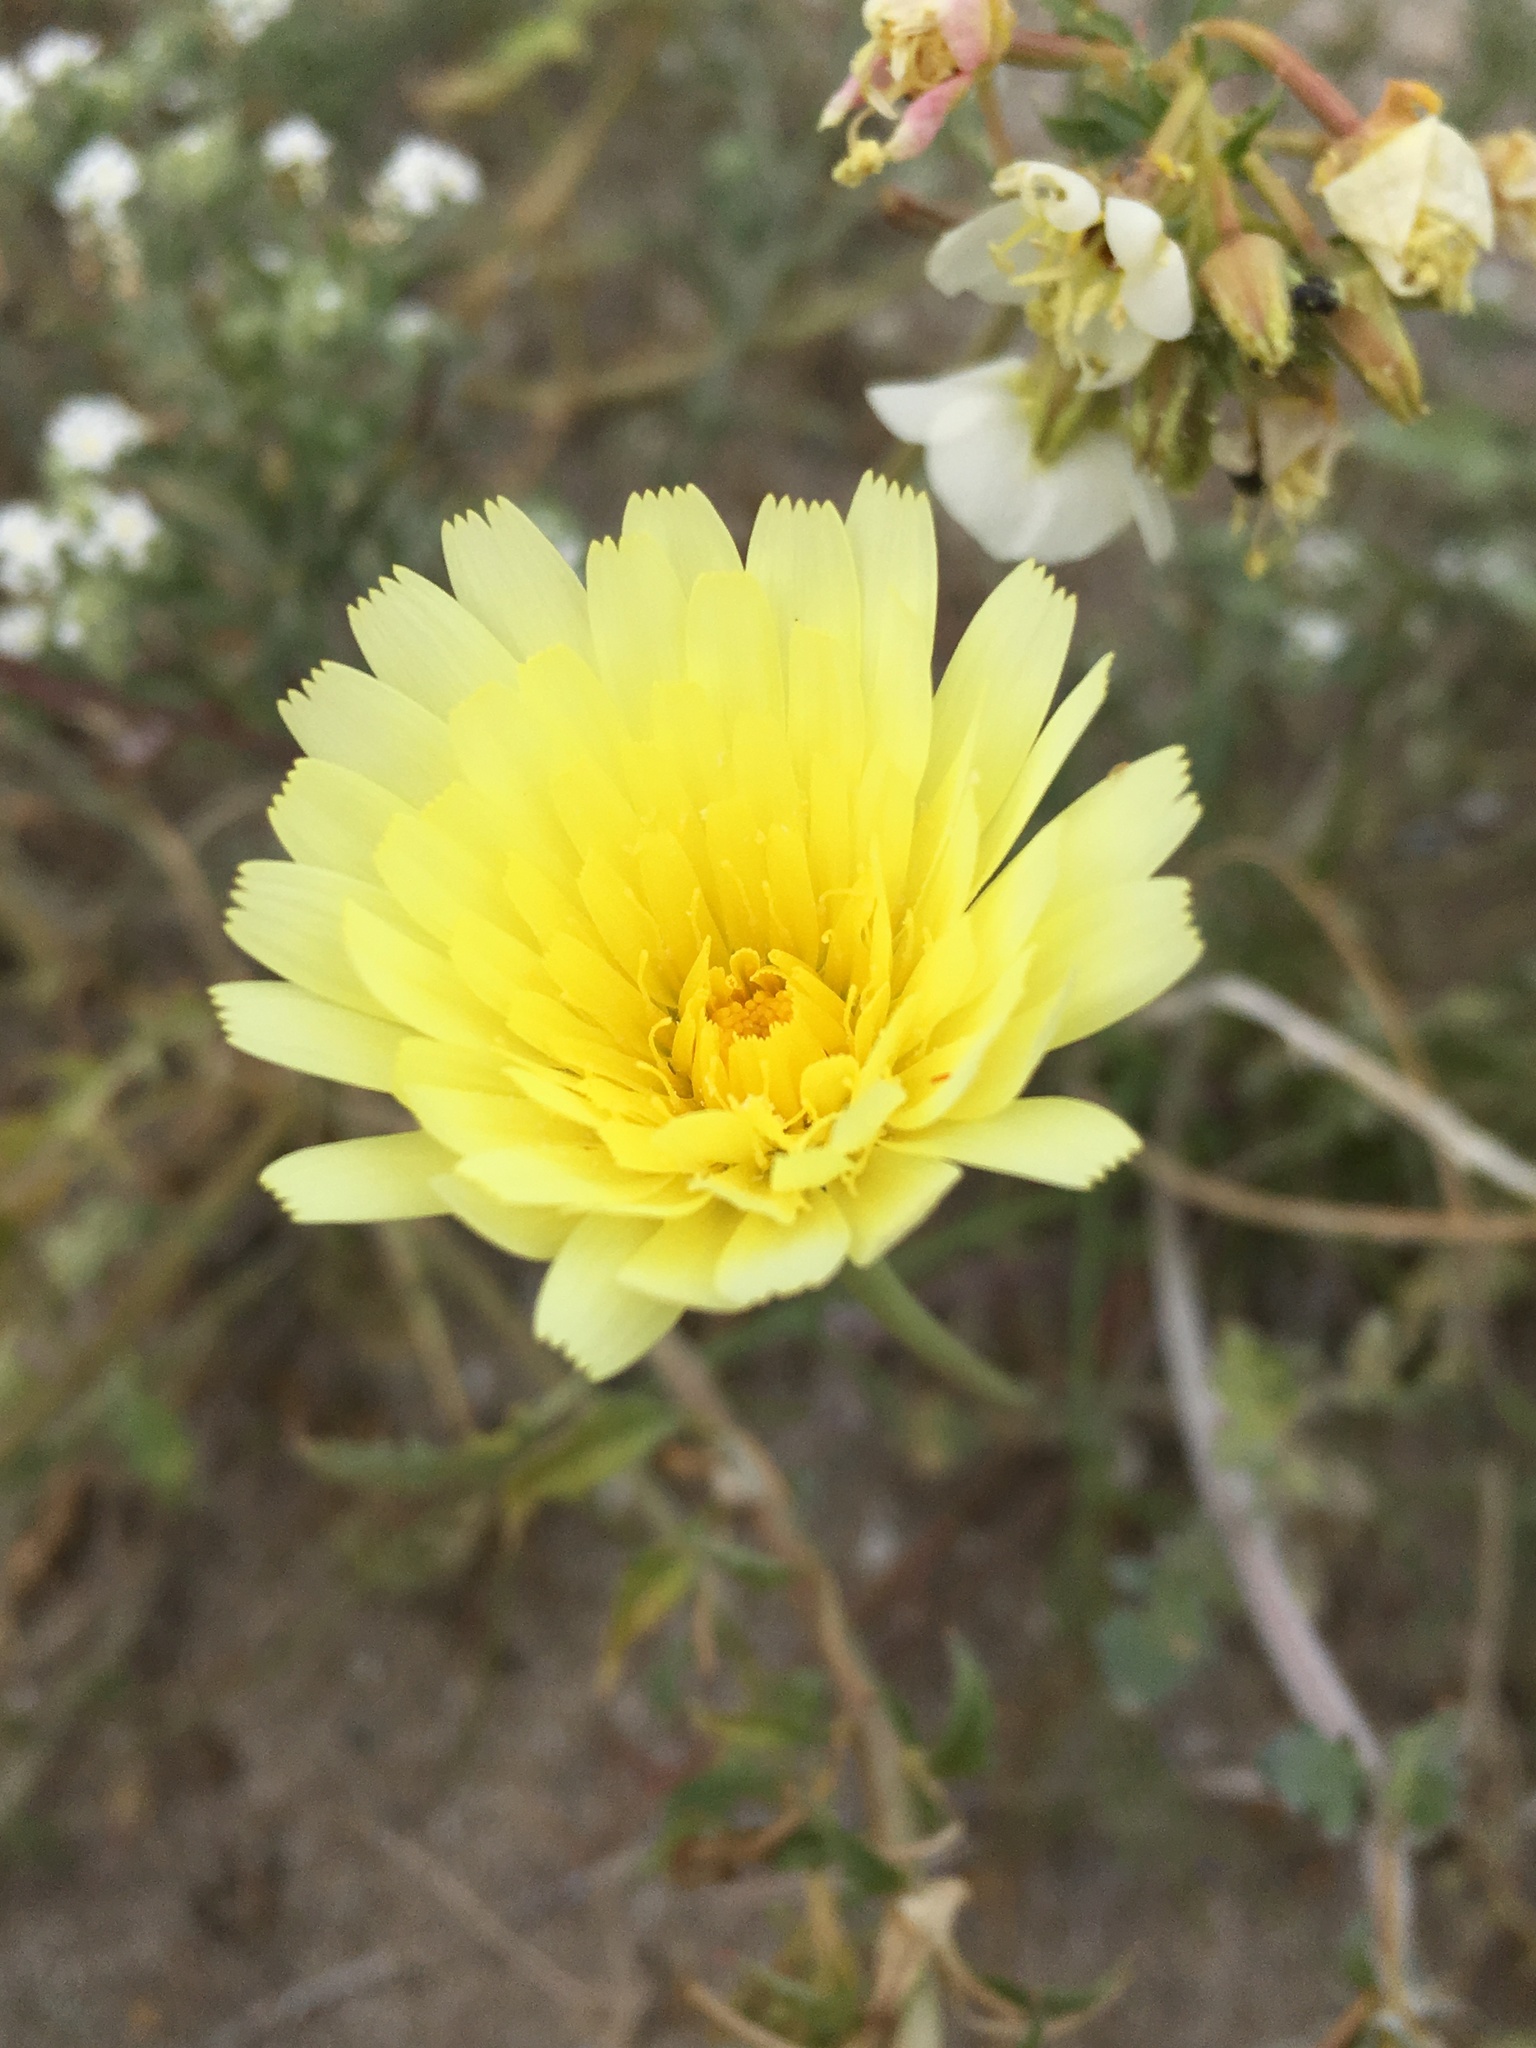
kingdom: Plantae
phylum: Tracheophyta
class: Magnoliopsida
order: Asterales
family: Asteraceae
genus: Malacothrix
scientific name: Malacothrix glabrata
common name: Smooth desert-dandelion
